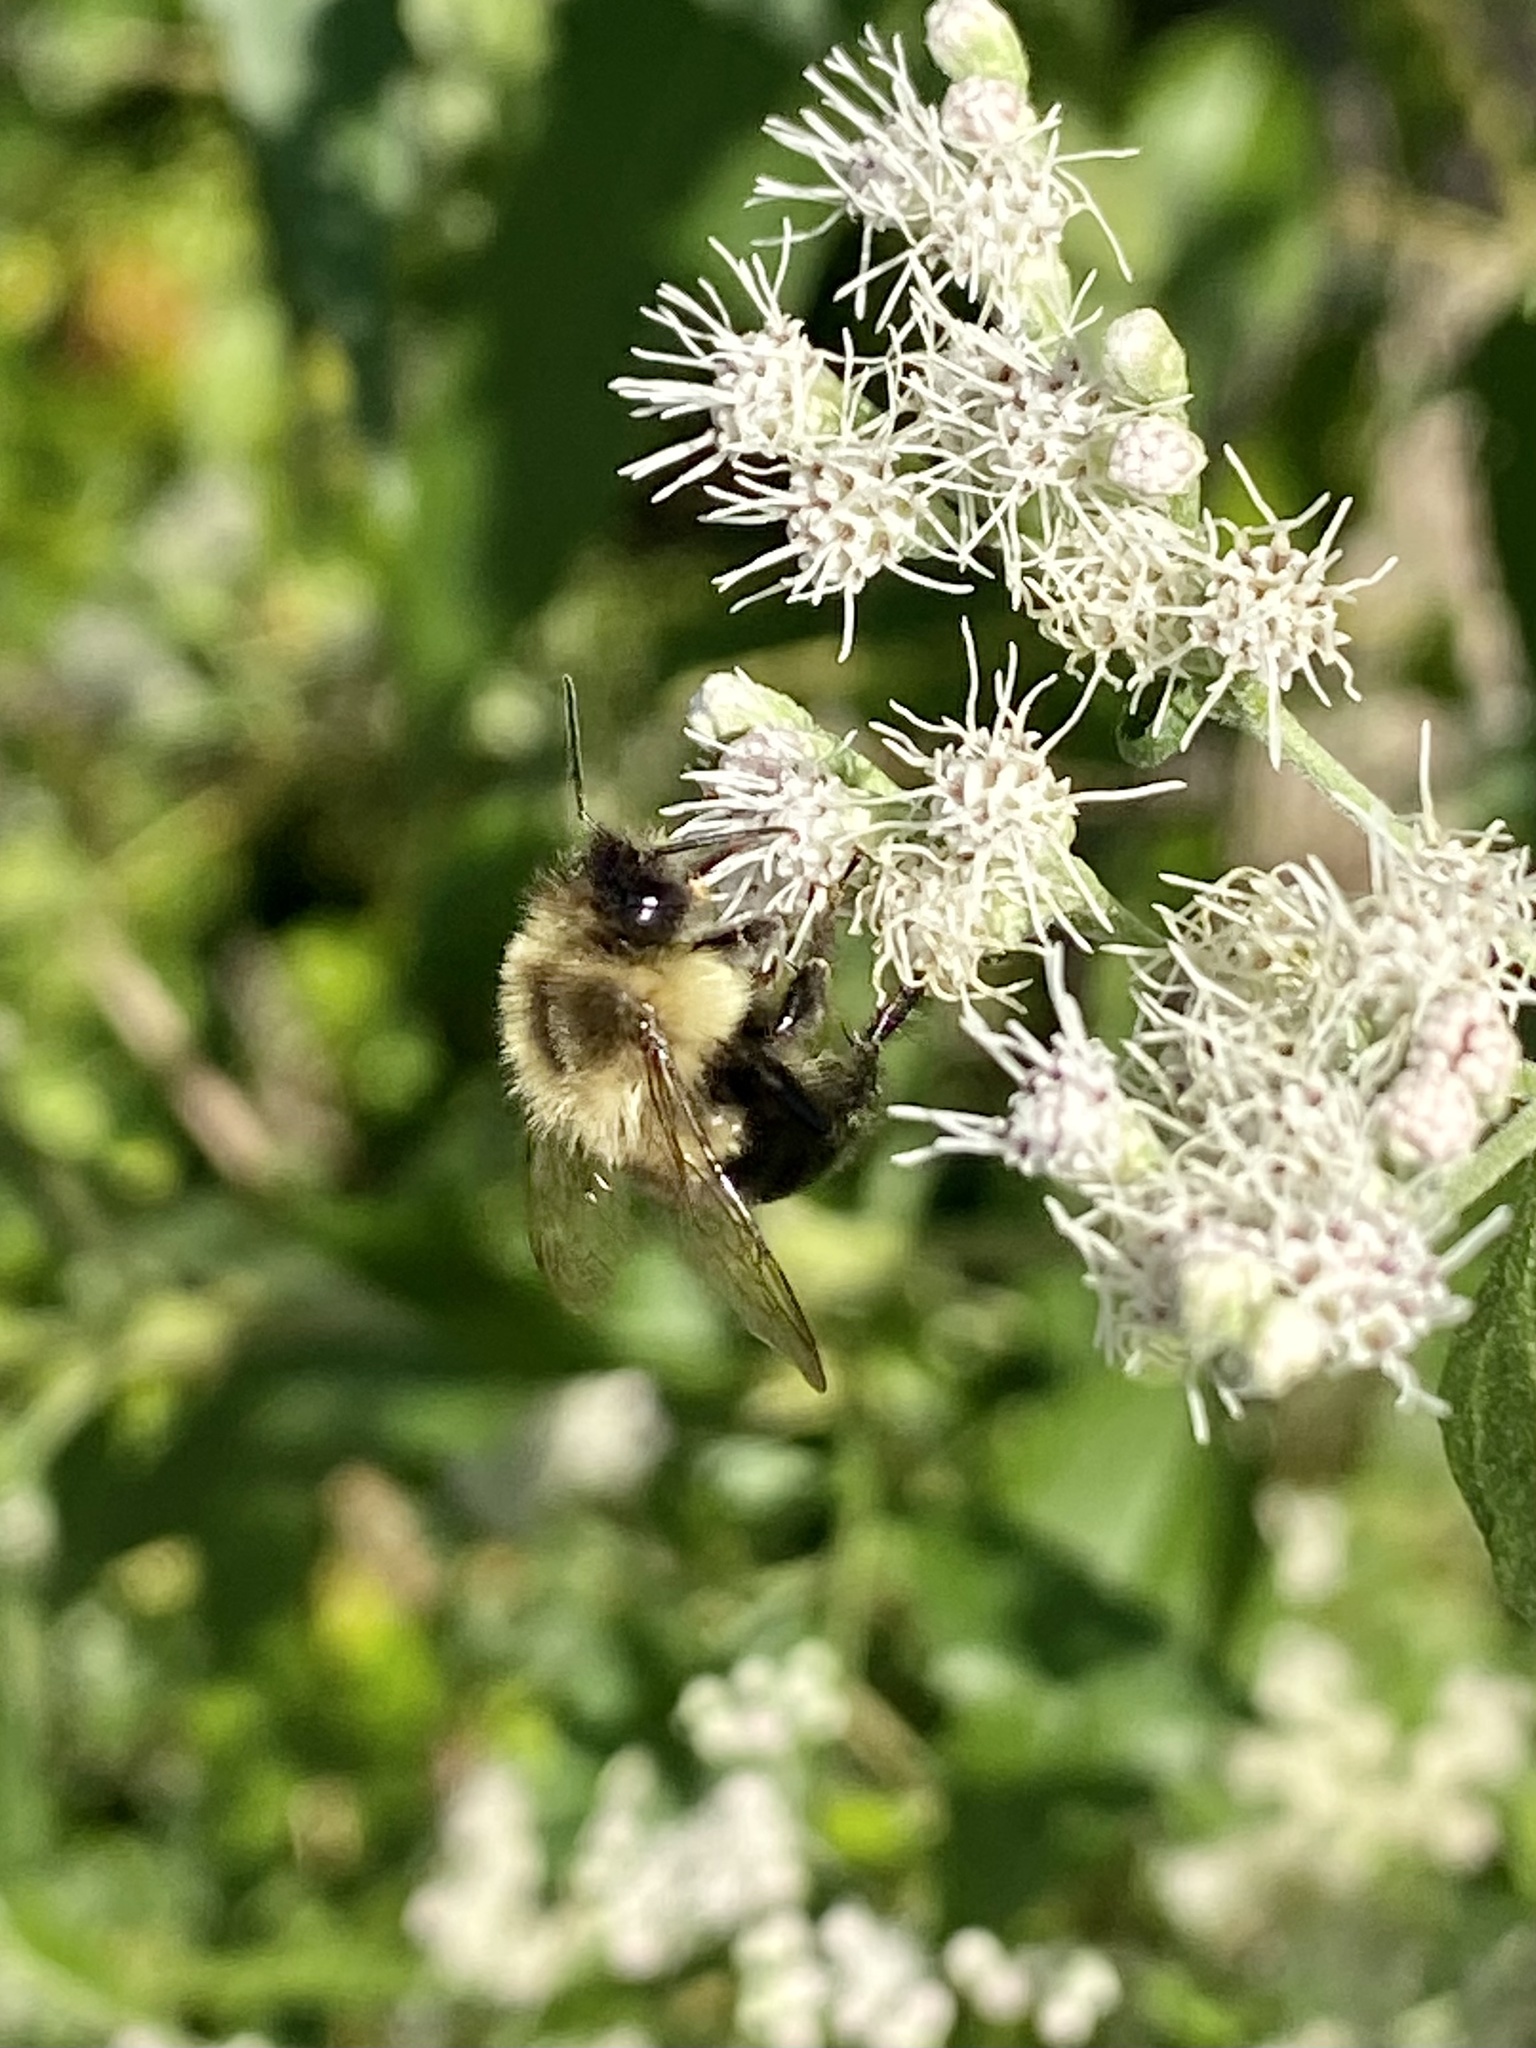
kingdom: Animalia
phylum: Arthropoda
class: Insecta
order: Hymenoptera
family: Apidae
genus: Bombus
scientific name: Bombus impatiens
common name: Common eastern bumble bee
